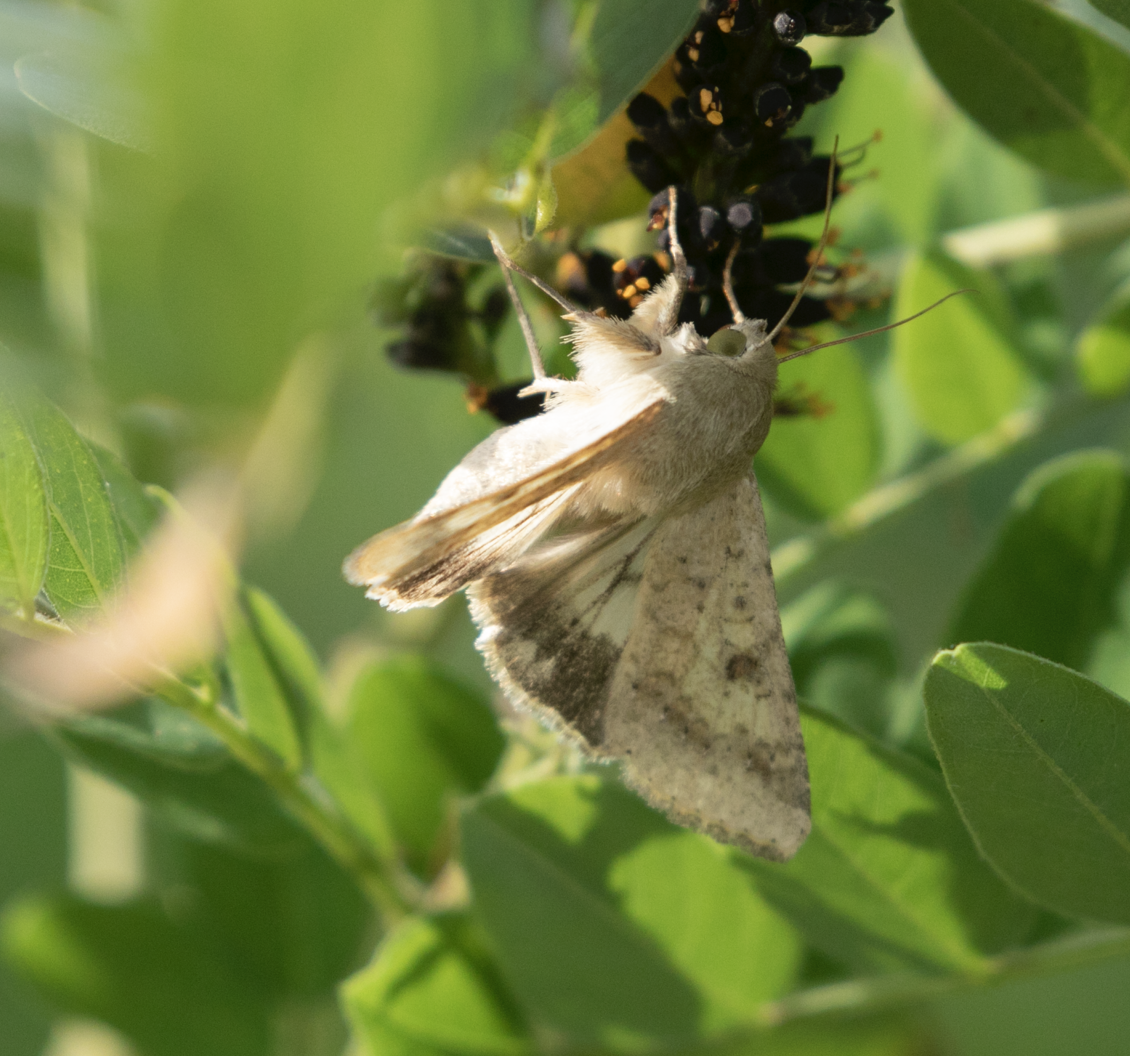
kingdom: Animalia
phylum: Arthropoda
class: Insecta
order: Lepidoptera
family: Noctuidae
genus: Helicoverpa
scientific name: Helicoverpa armigera
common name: Cotton bollworm
